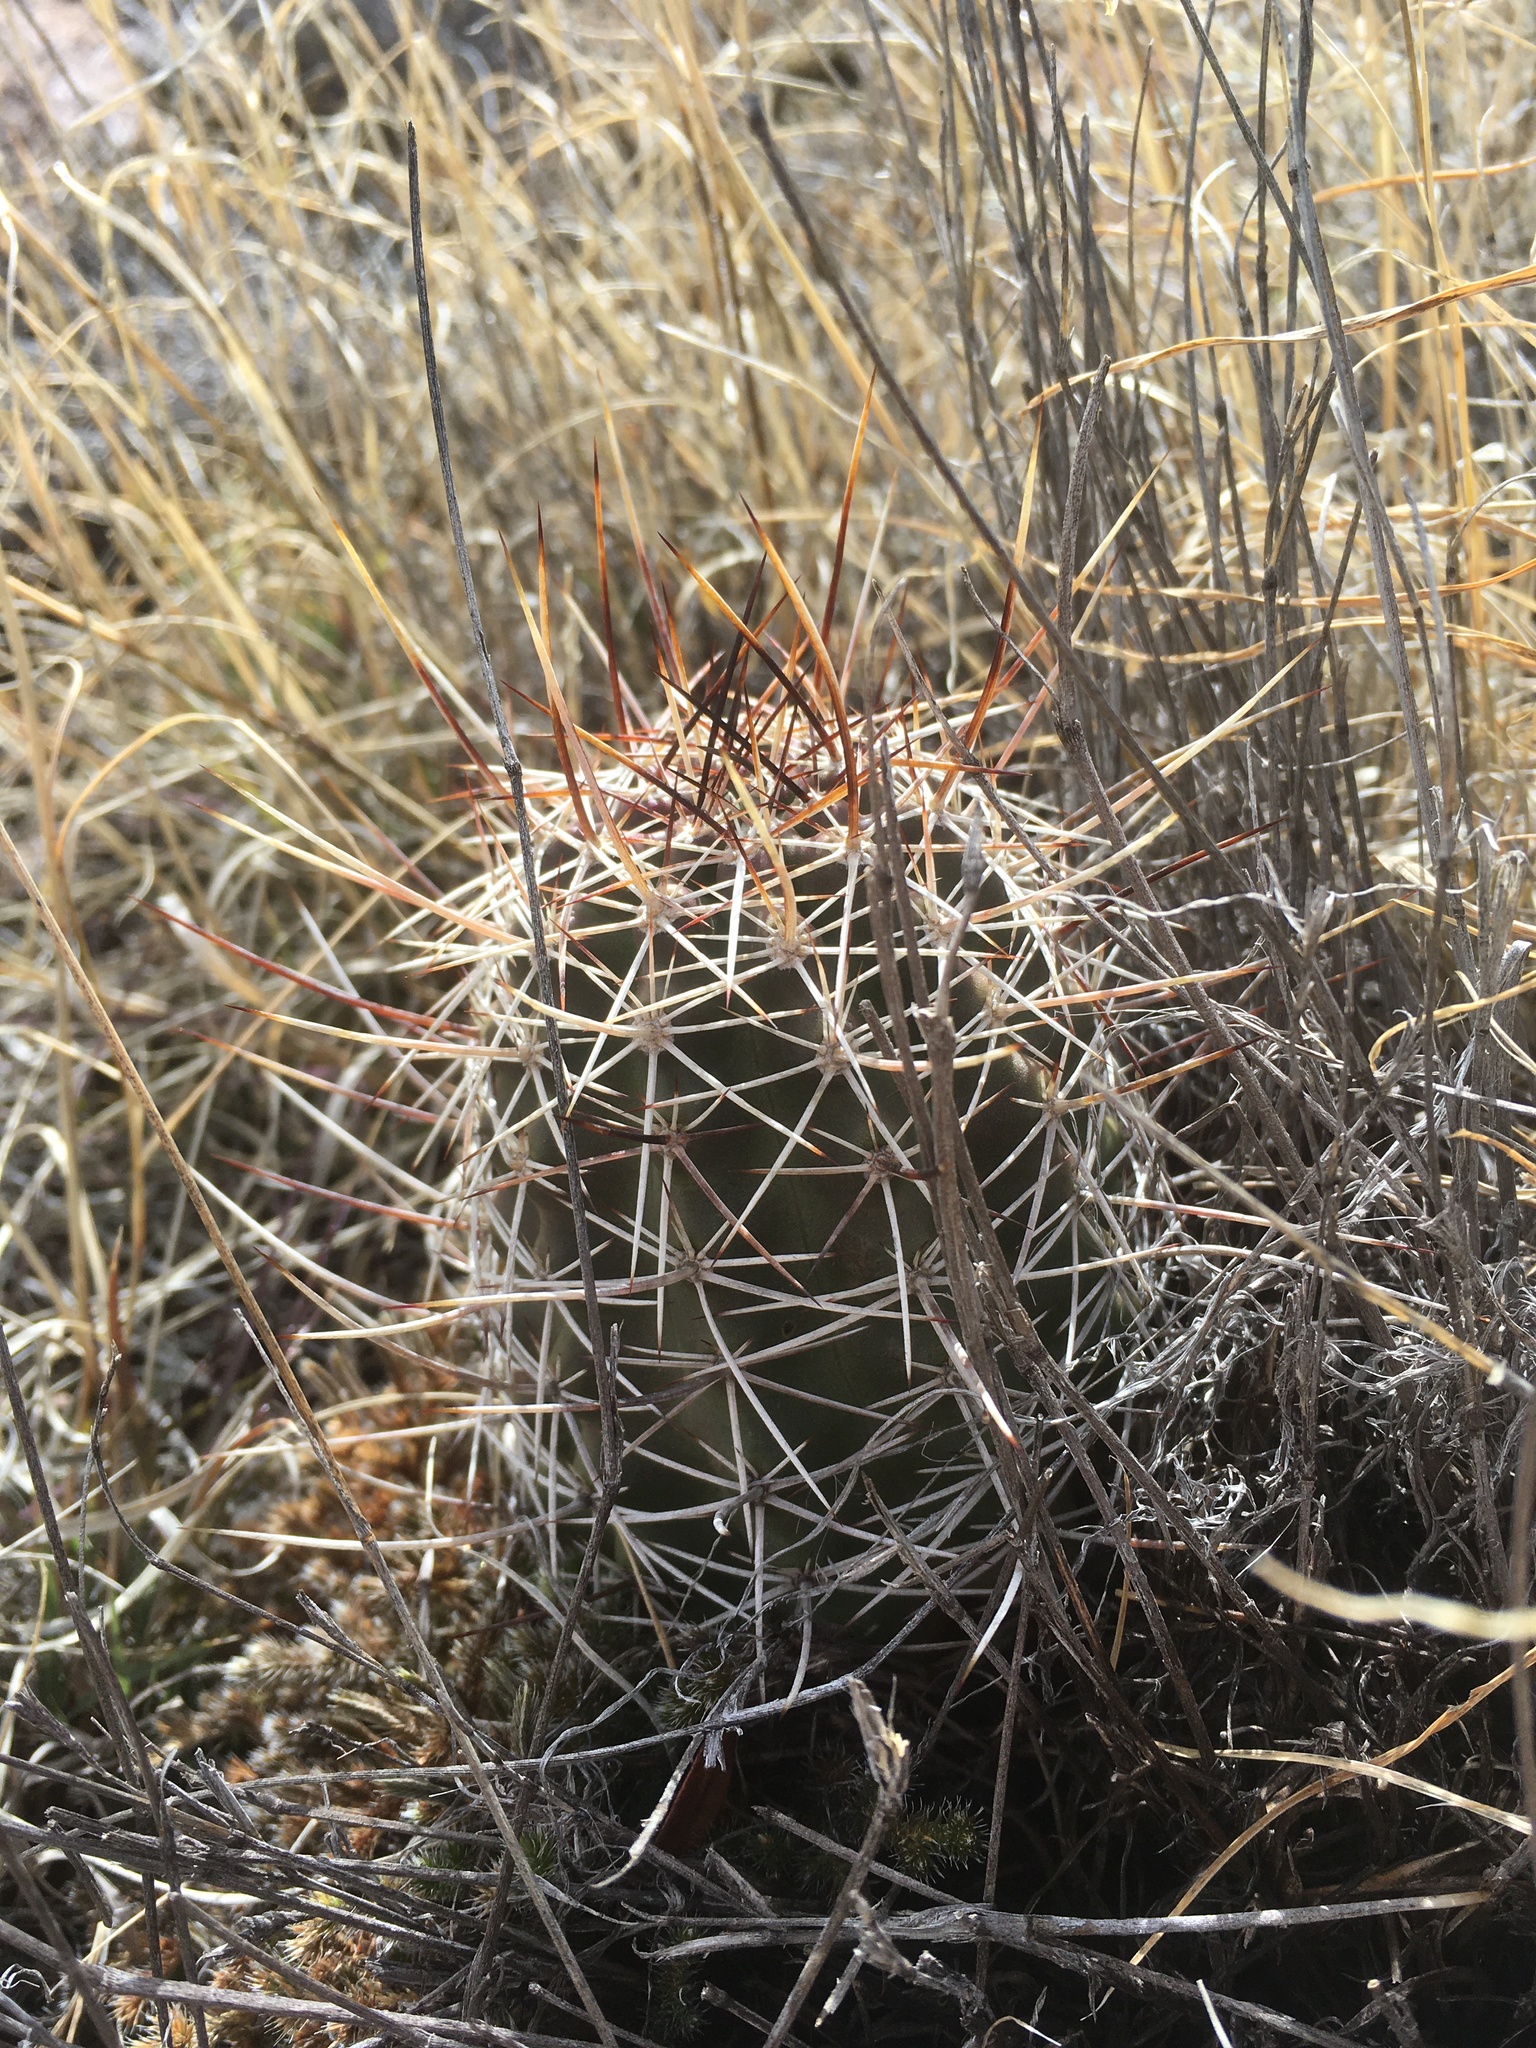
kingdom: Plantae
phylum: Tracheophyta
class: Magnoliopsida
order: Caryophyllales
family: Cactaceae
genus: Echinocereus
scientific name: Echinocereus fendleri
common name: Fendler's hedgehog cactus
